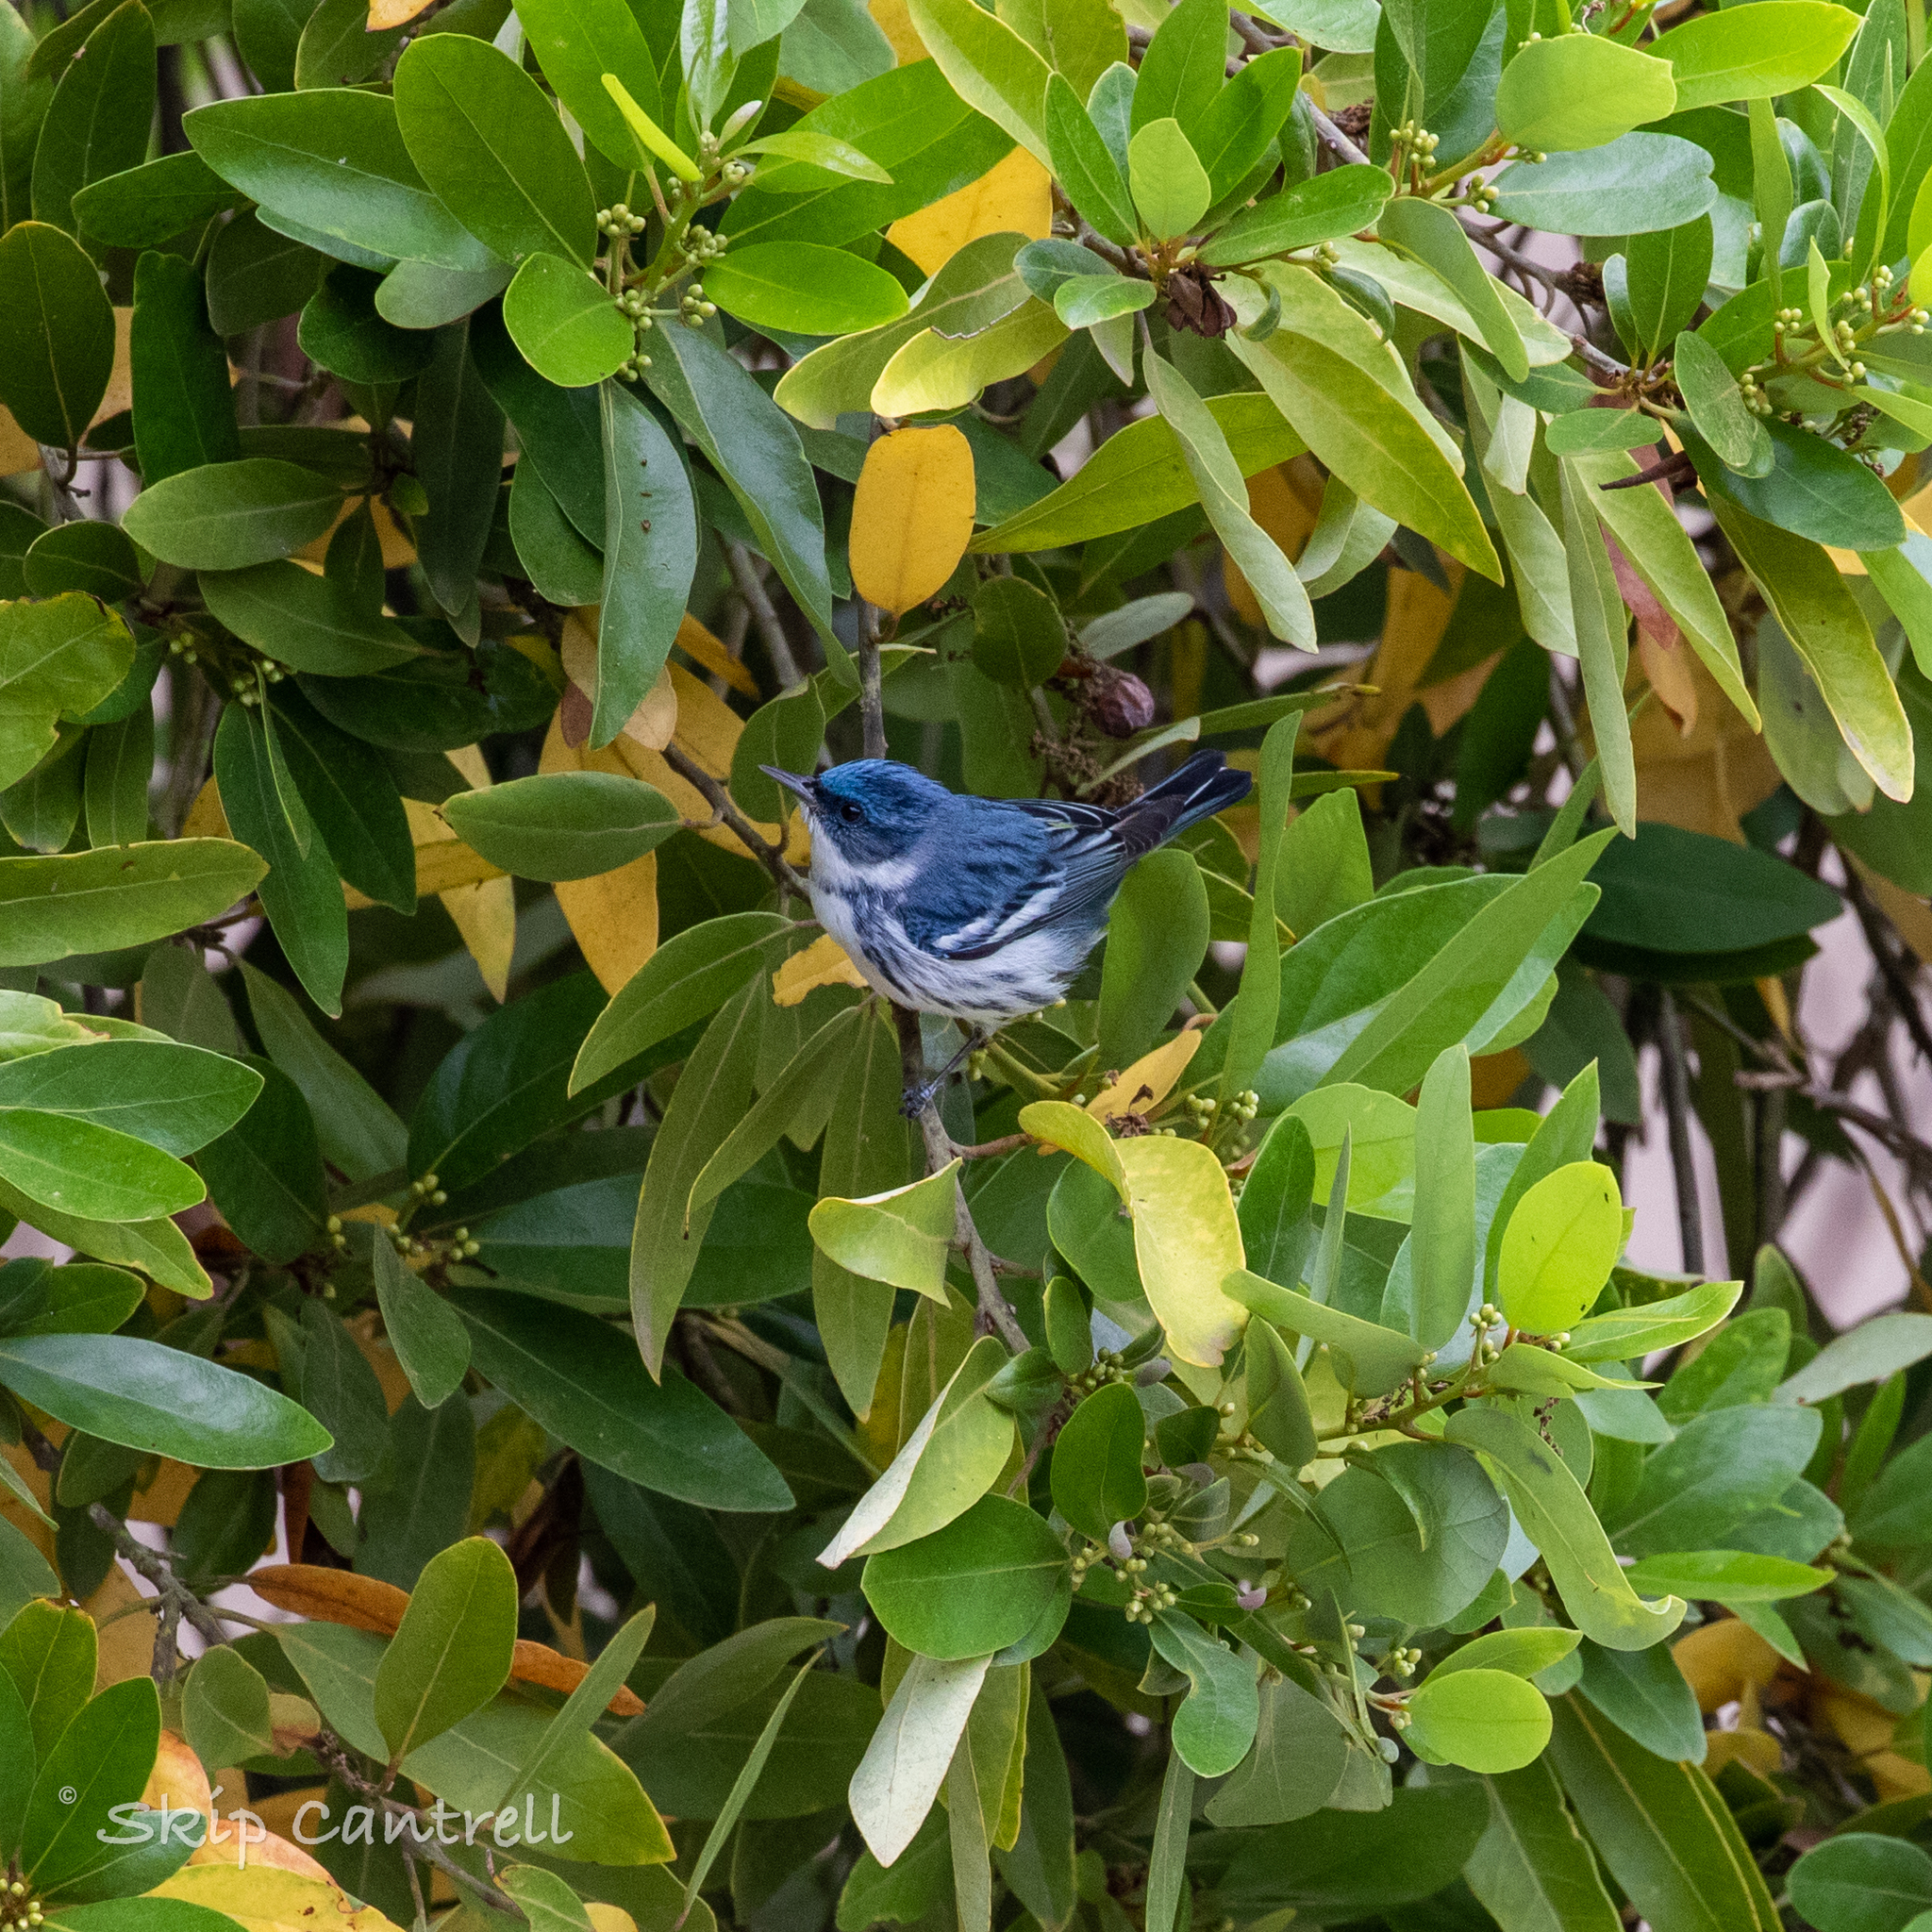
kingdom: Animalia
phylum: Chordata
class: Aves
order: Passeriformes
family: Parulidae
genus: Setophaga
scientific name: Setophaga cerulea
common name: Cerulean warbler
